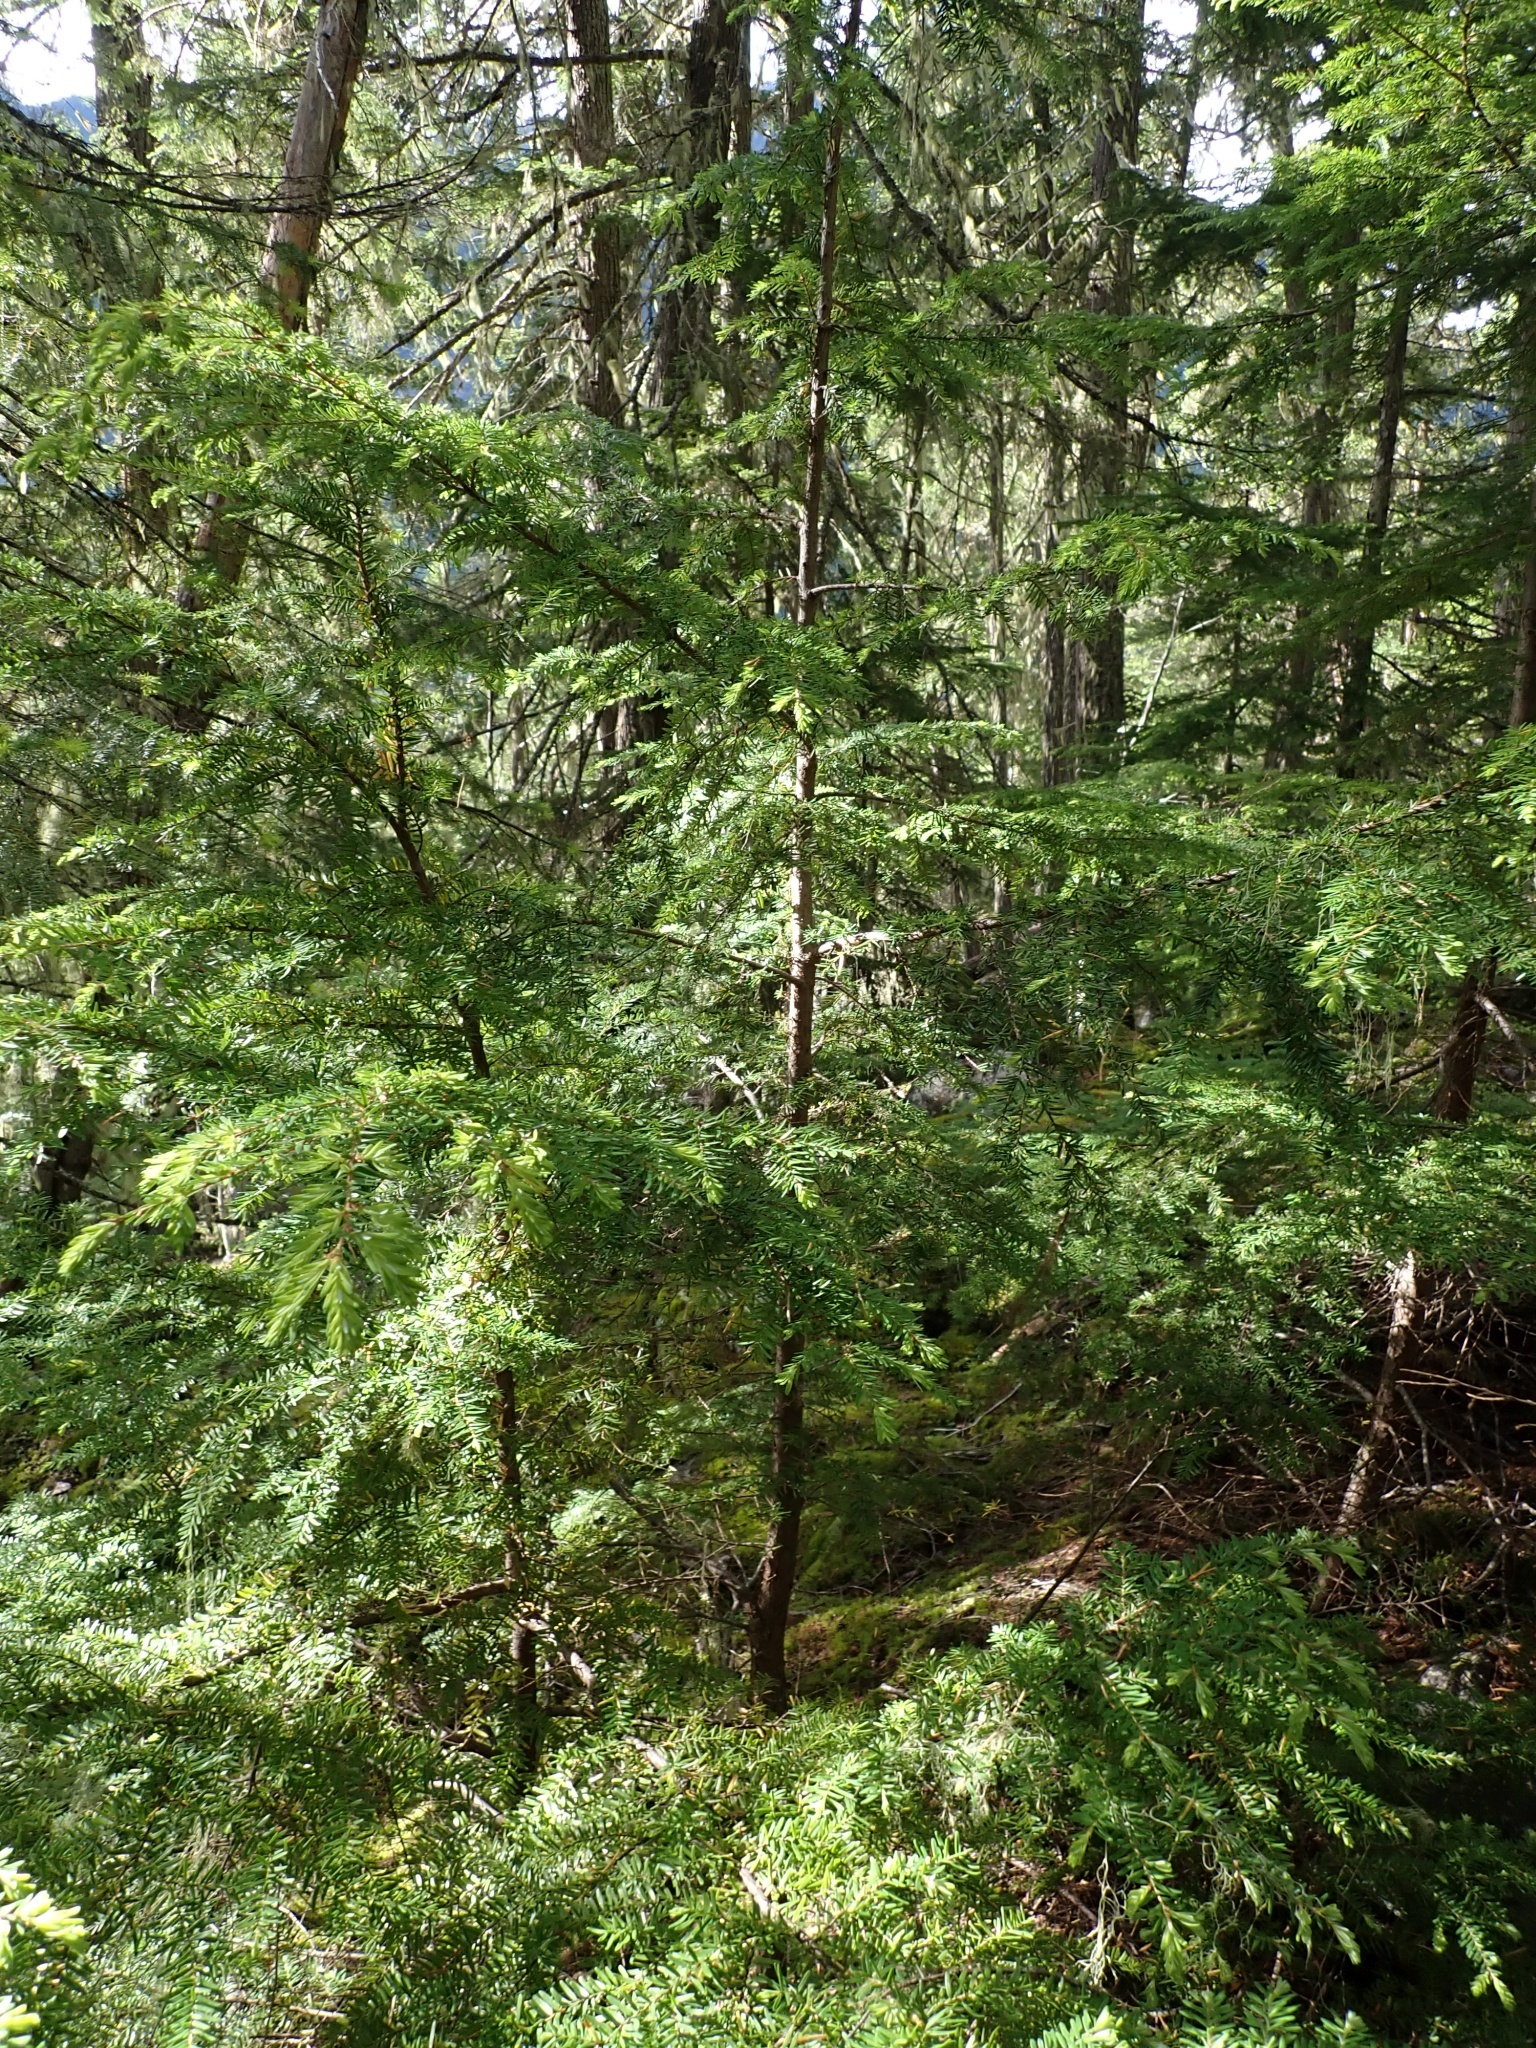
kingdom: Plantae
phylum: Tracheophyta
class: Pinopsida
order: Pinales
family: Pinaceae
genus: Tsuga
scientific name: Tsuga heterophylla
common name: Western hemlock
